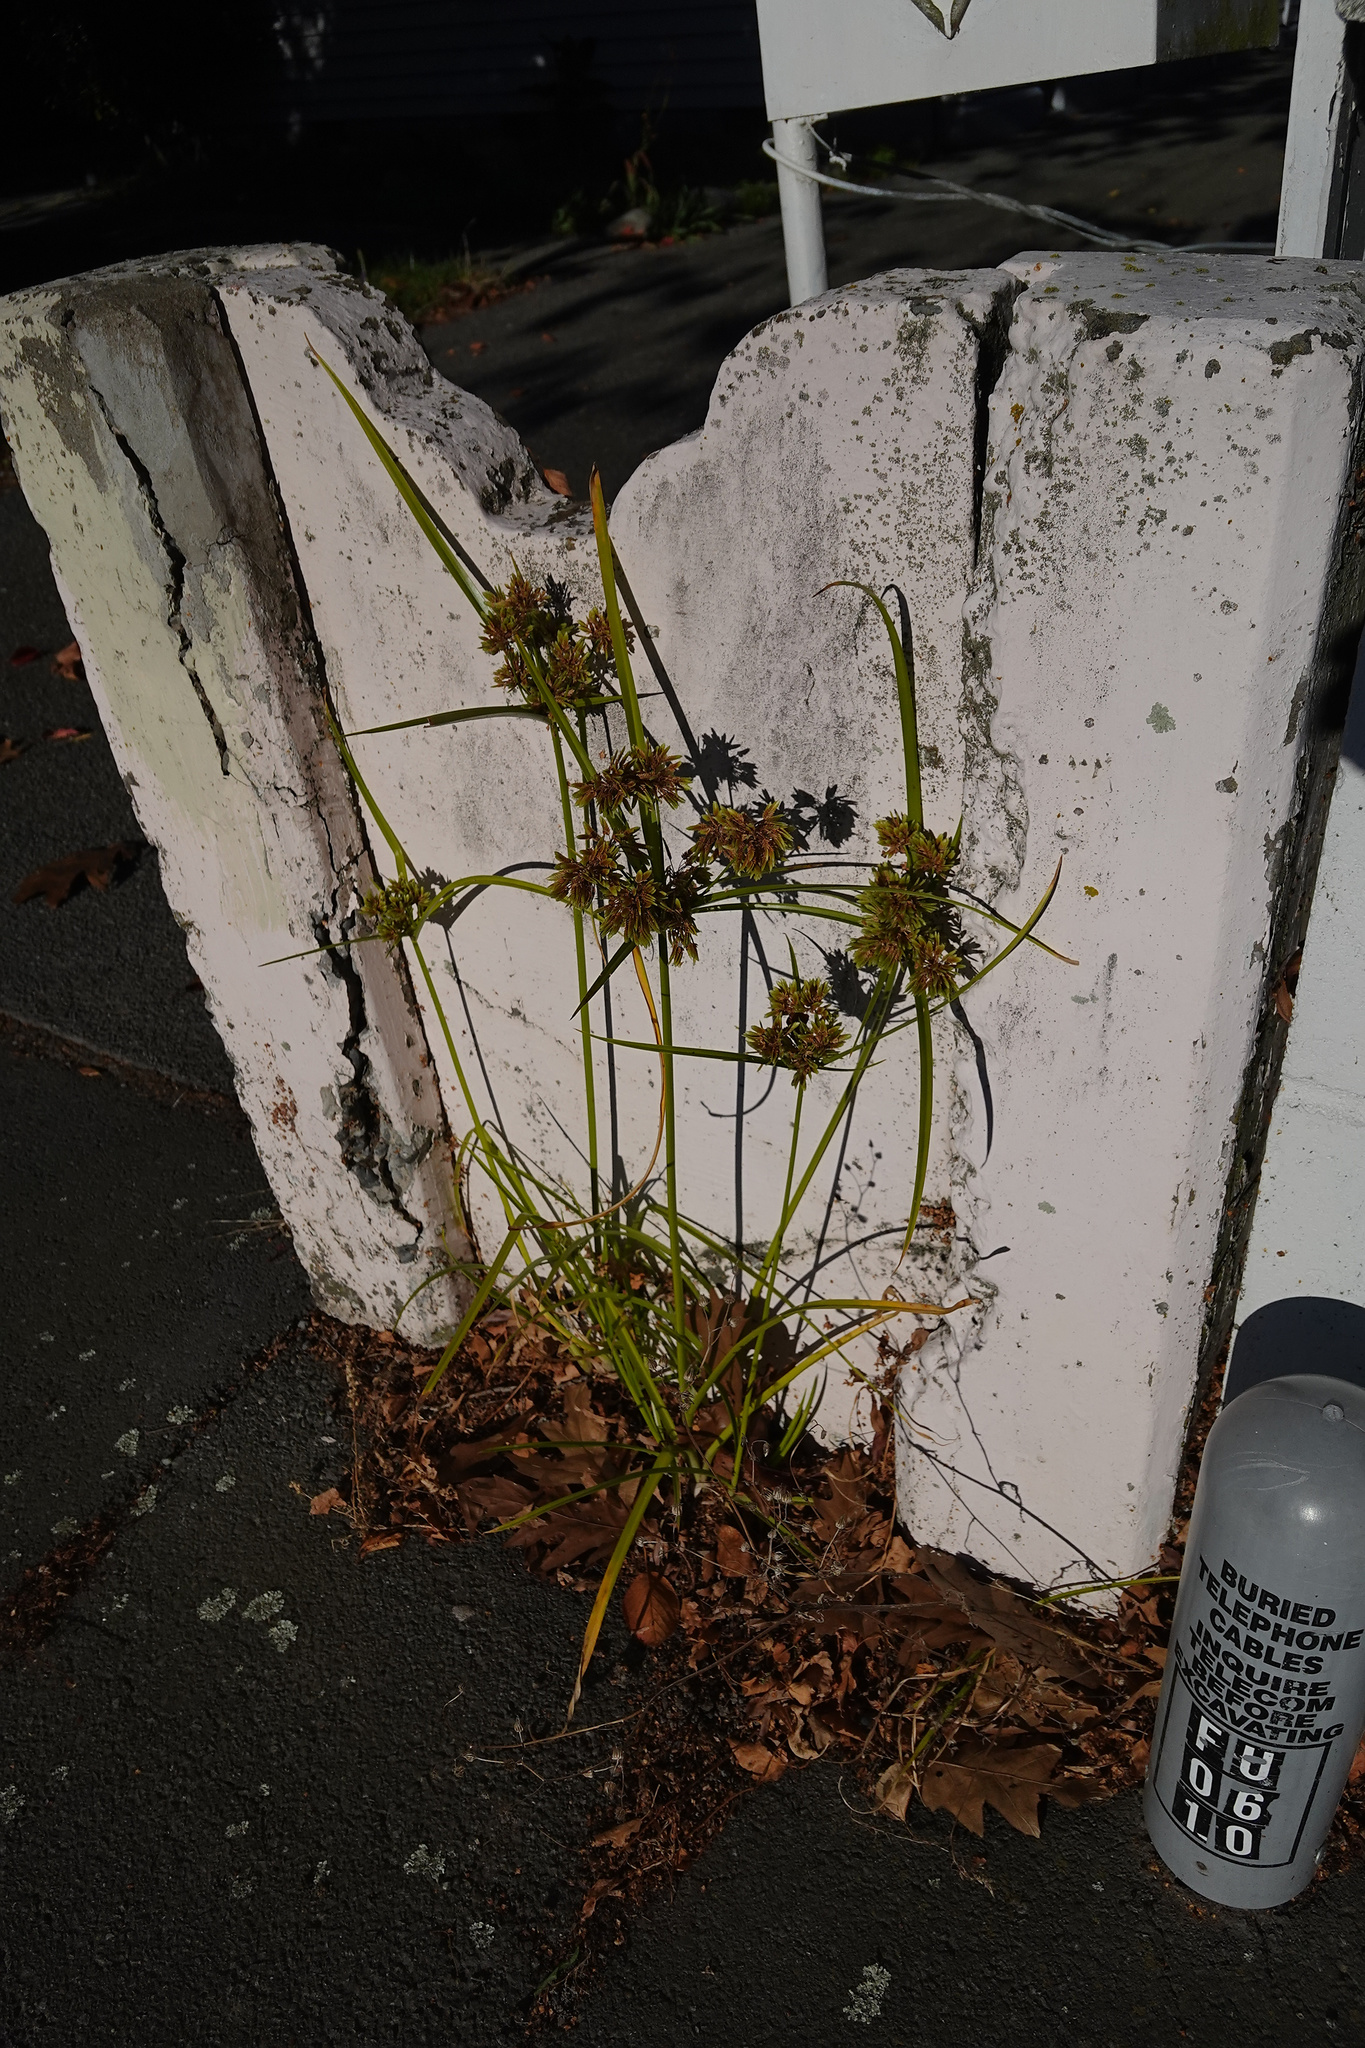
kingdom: Plantae
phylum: Tracheophyta
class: Liliopsida
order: Poales
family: Cyperaceae
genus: Cyperus
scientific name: Cyperus eragrostis
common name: Tall flatsedge
